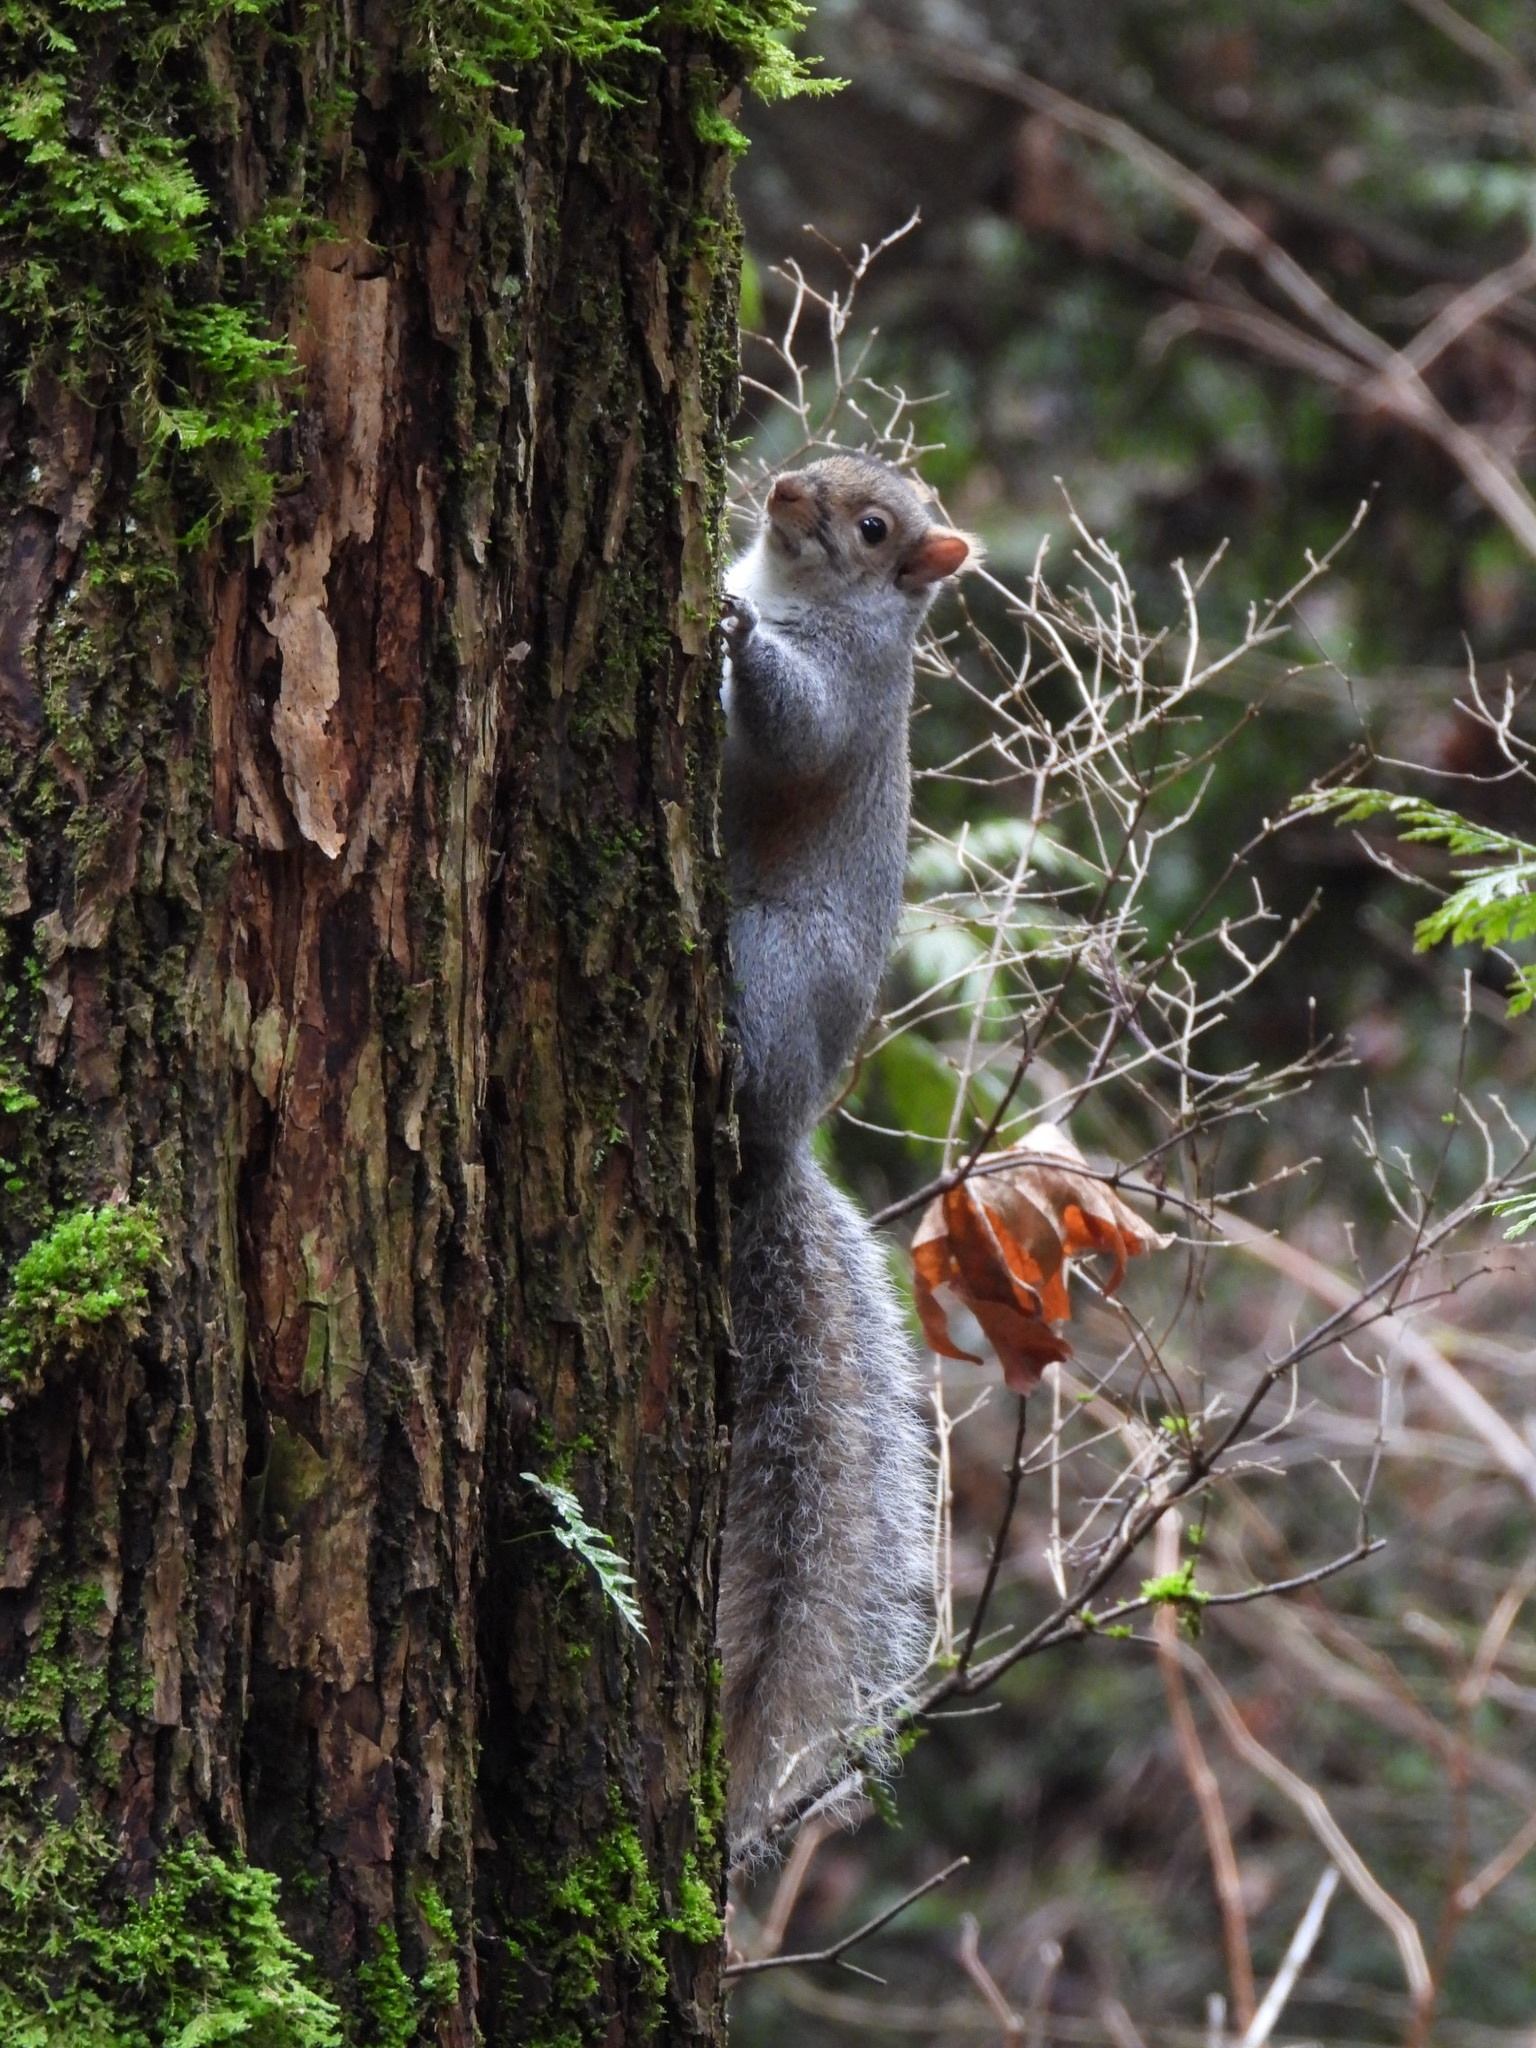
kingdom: Animalia
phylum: Chordata
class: Mammalia
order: Rodentia
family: Sciuridae
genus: Sciurus
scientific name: Sciurus carolinensis
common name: Eastern gray squirrel
